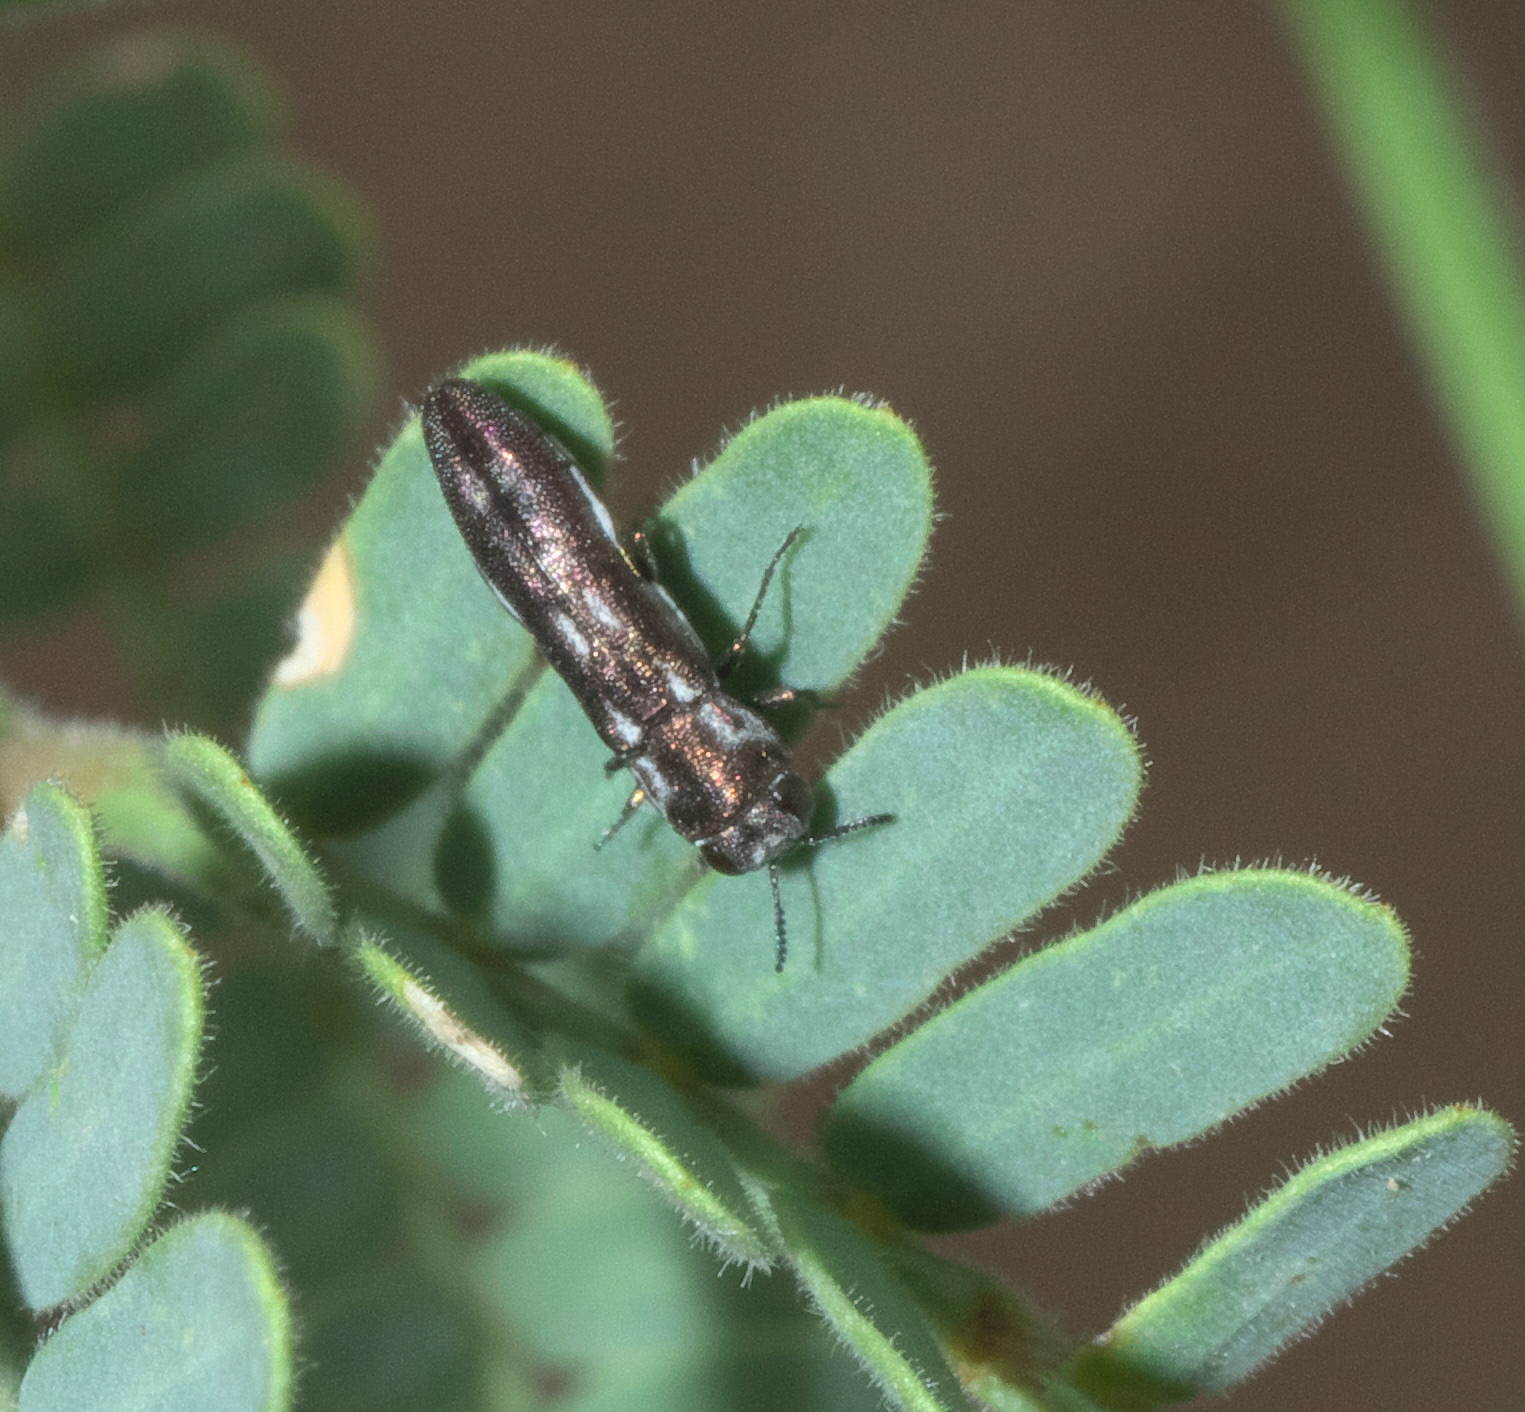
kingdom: Animalia
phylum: Arthropoda
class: Insecta
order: Coleoptera
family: Buprestidae
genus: Agrilus
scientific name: Agrilus paraimpexus
